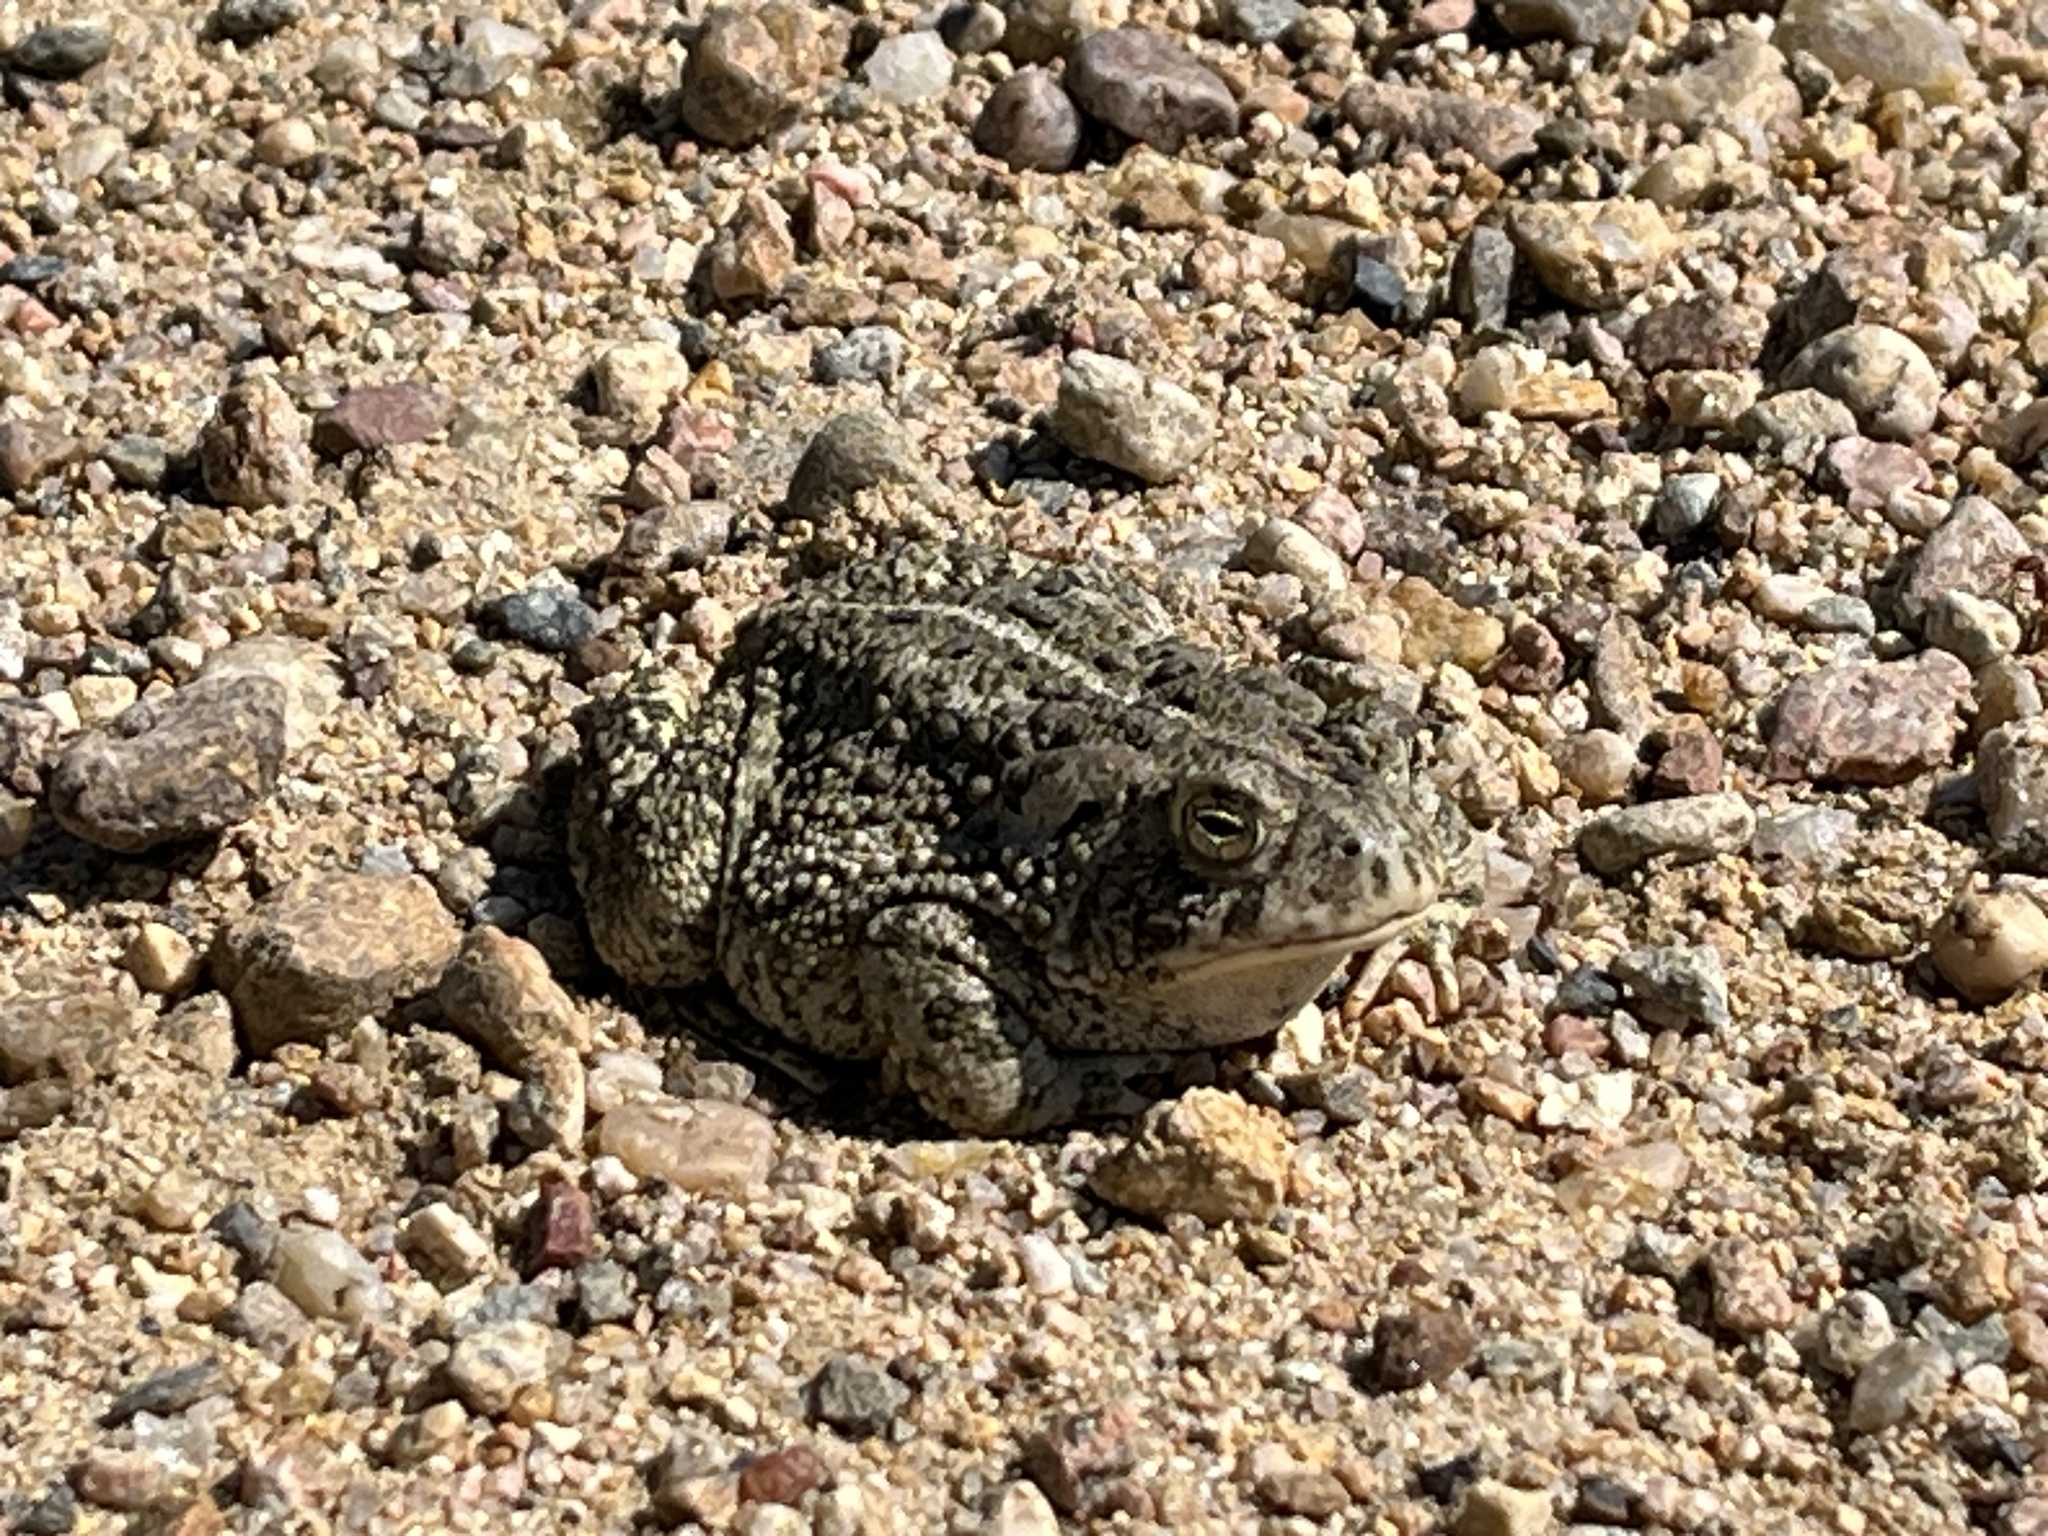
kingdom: Animalia
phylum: Chordata
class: Amphibia
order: Anura
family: Bufonidae
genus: Anaxyrus
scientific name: Anaxyrus woodhousii
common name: Woodhouse's toad
